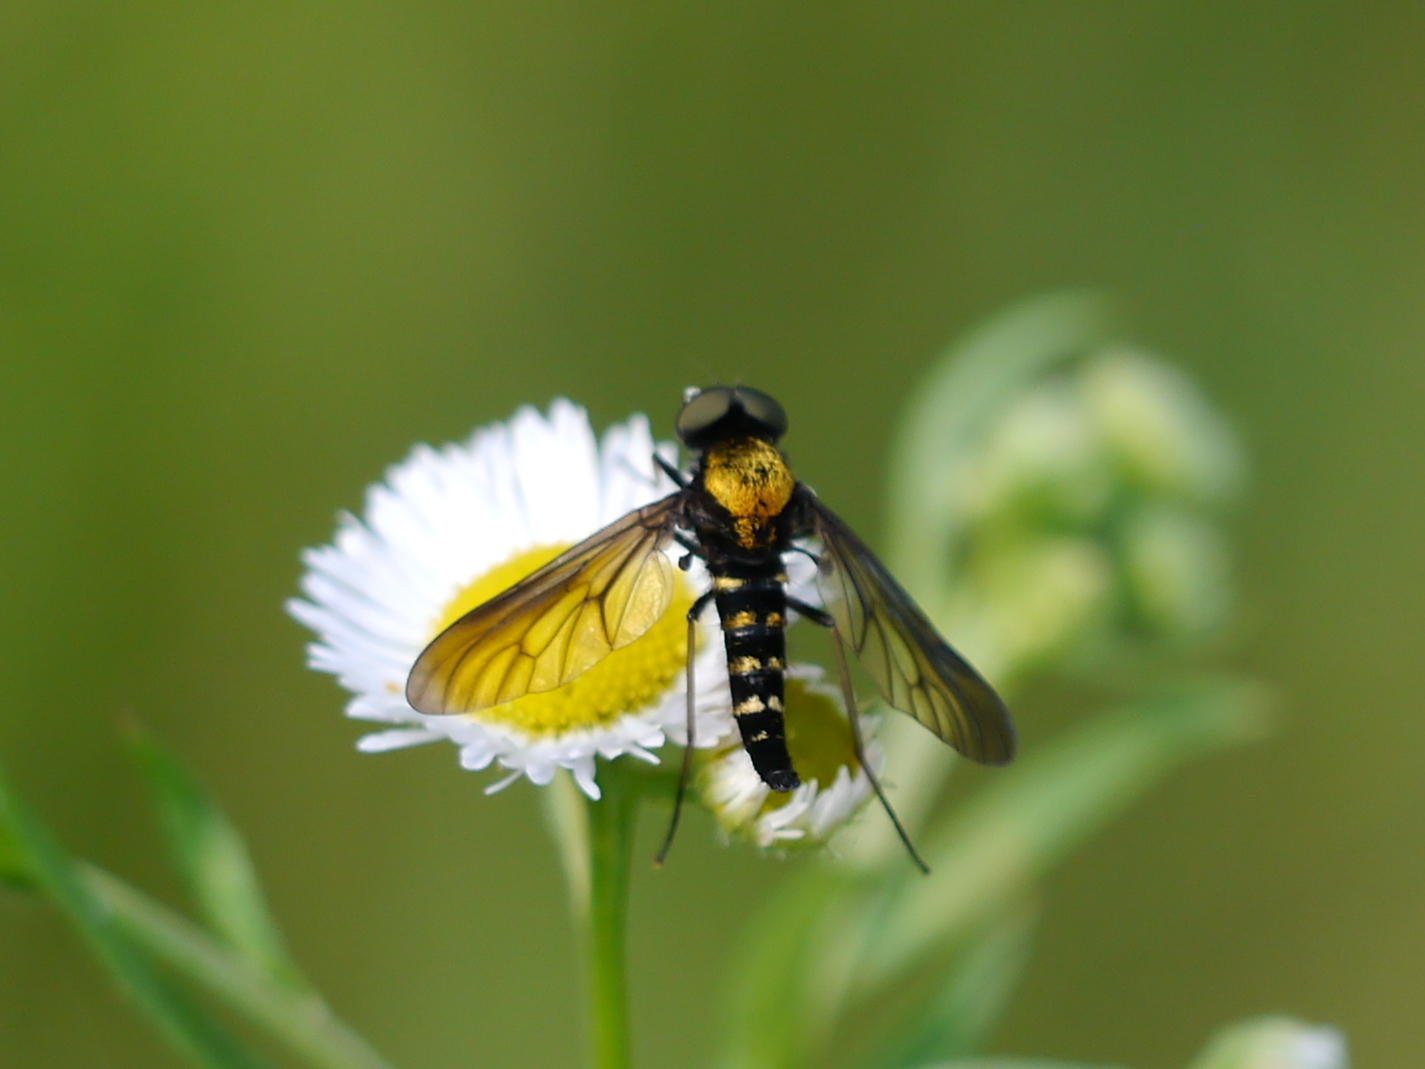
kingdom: Animalia
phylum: Arthropoda
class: Insecta
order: Diptera
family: Rhagionidae
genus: Chrysopilus
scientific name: Chrysopilus thoracicus
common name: Golden-backed snipe fly
